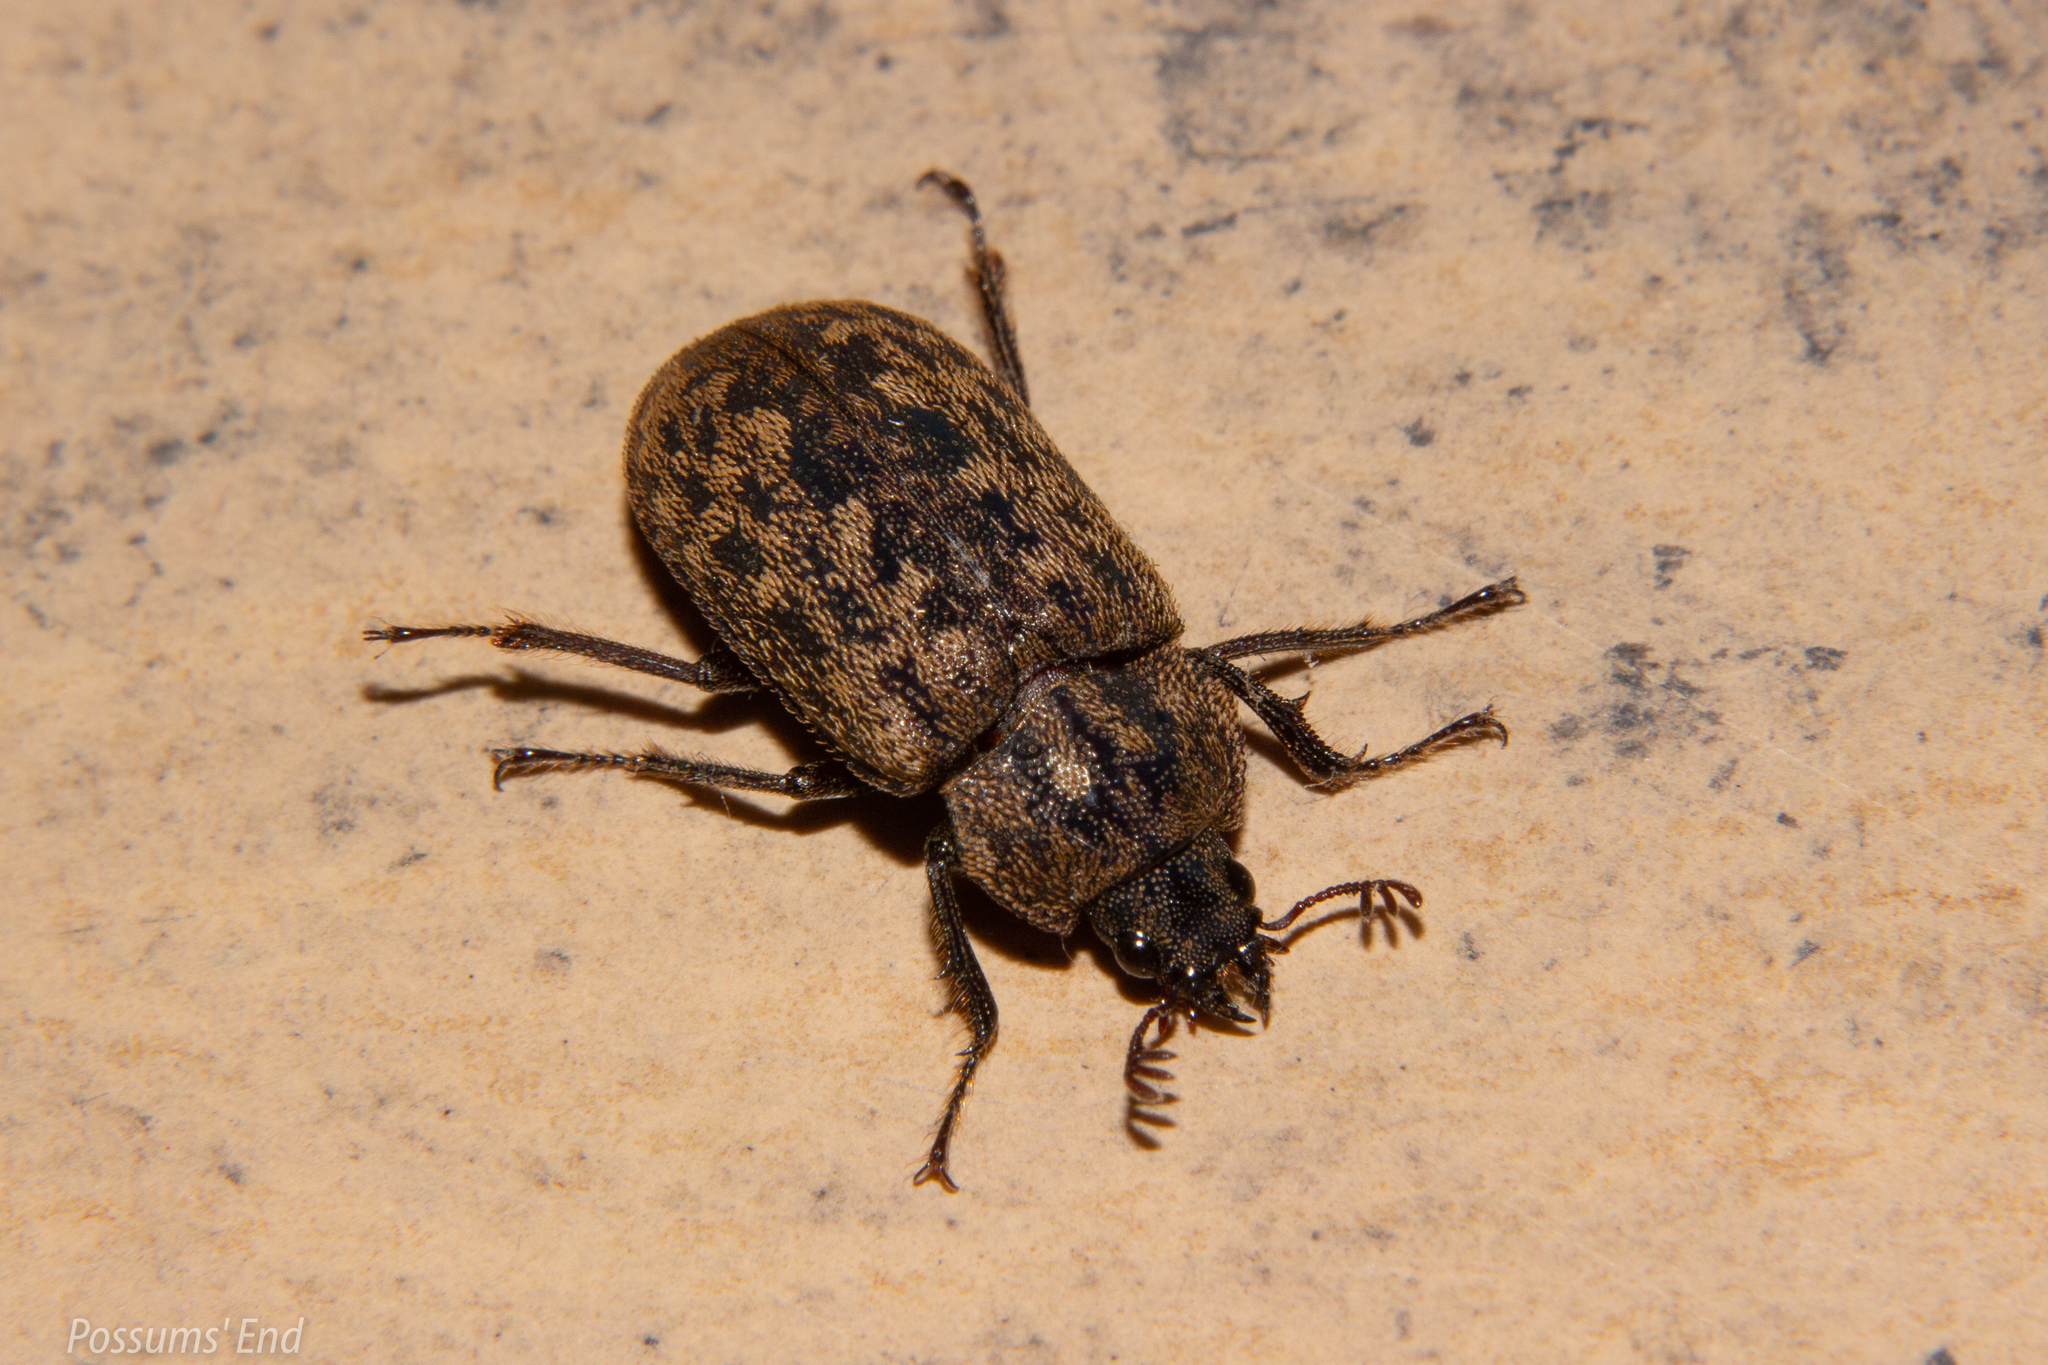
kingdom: Animalia
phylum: Arthropoda
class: Insecta
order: Coleoptera
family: Lucanidae
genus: Mitophyllus
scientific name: Mitophyllus parrianus
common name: Parry's stag beetle
